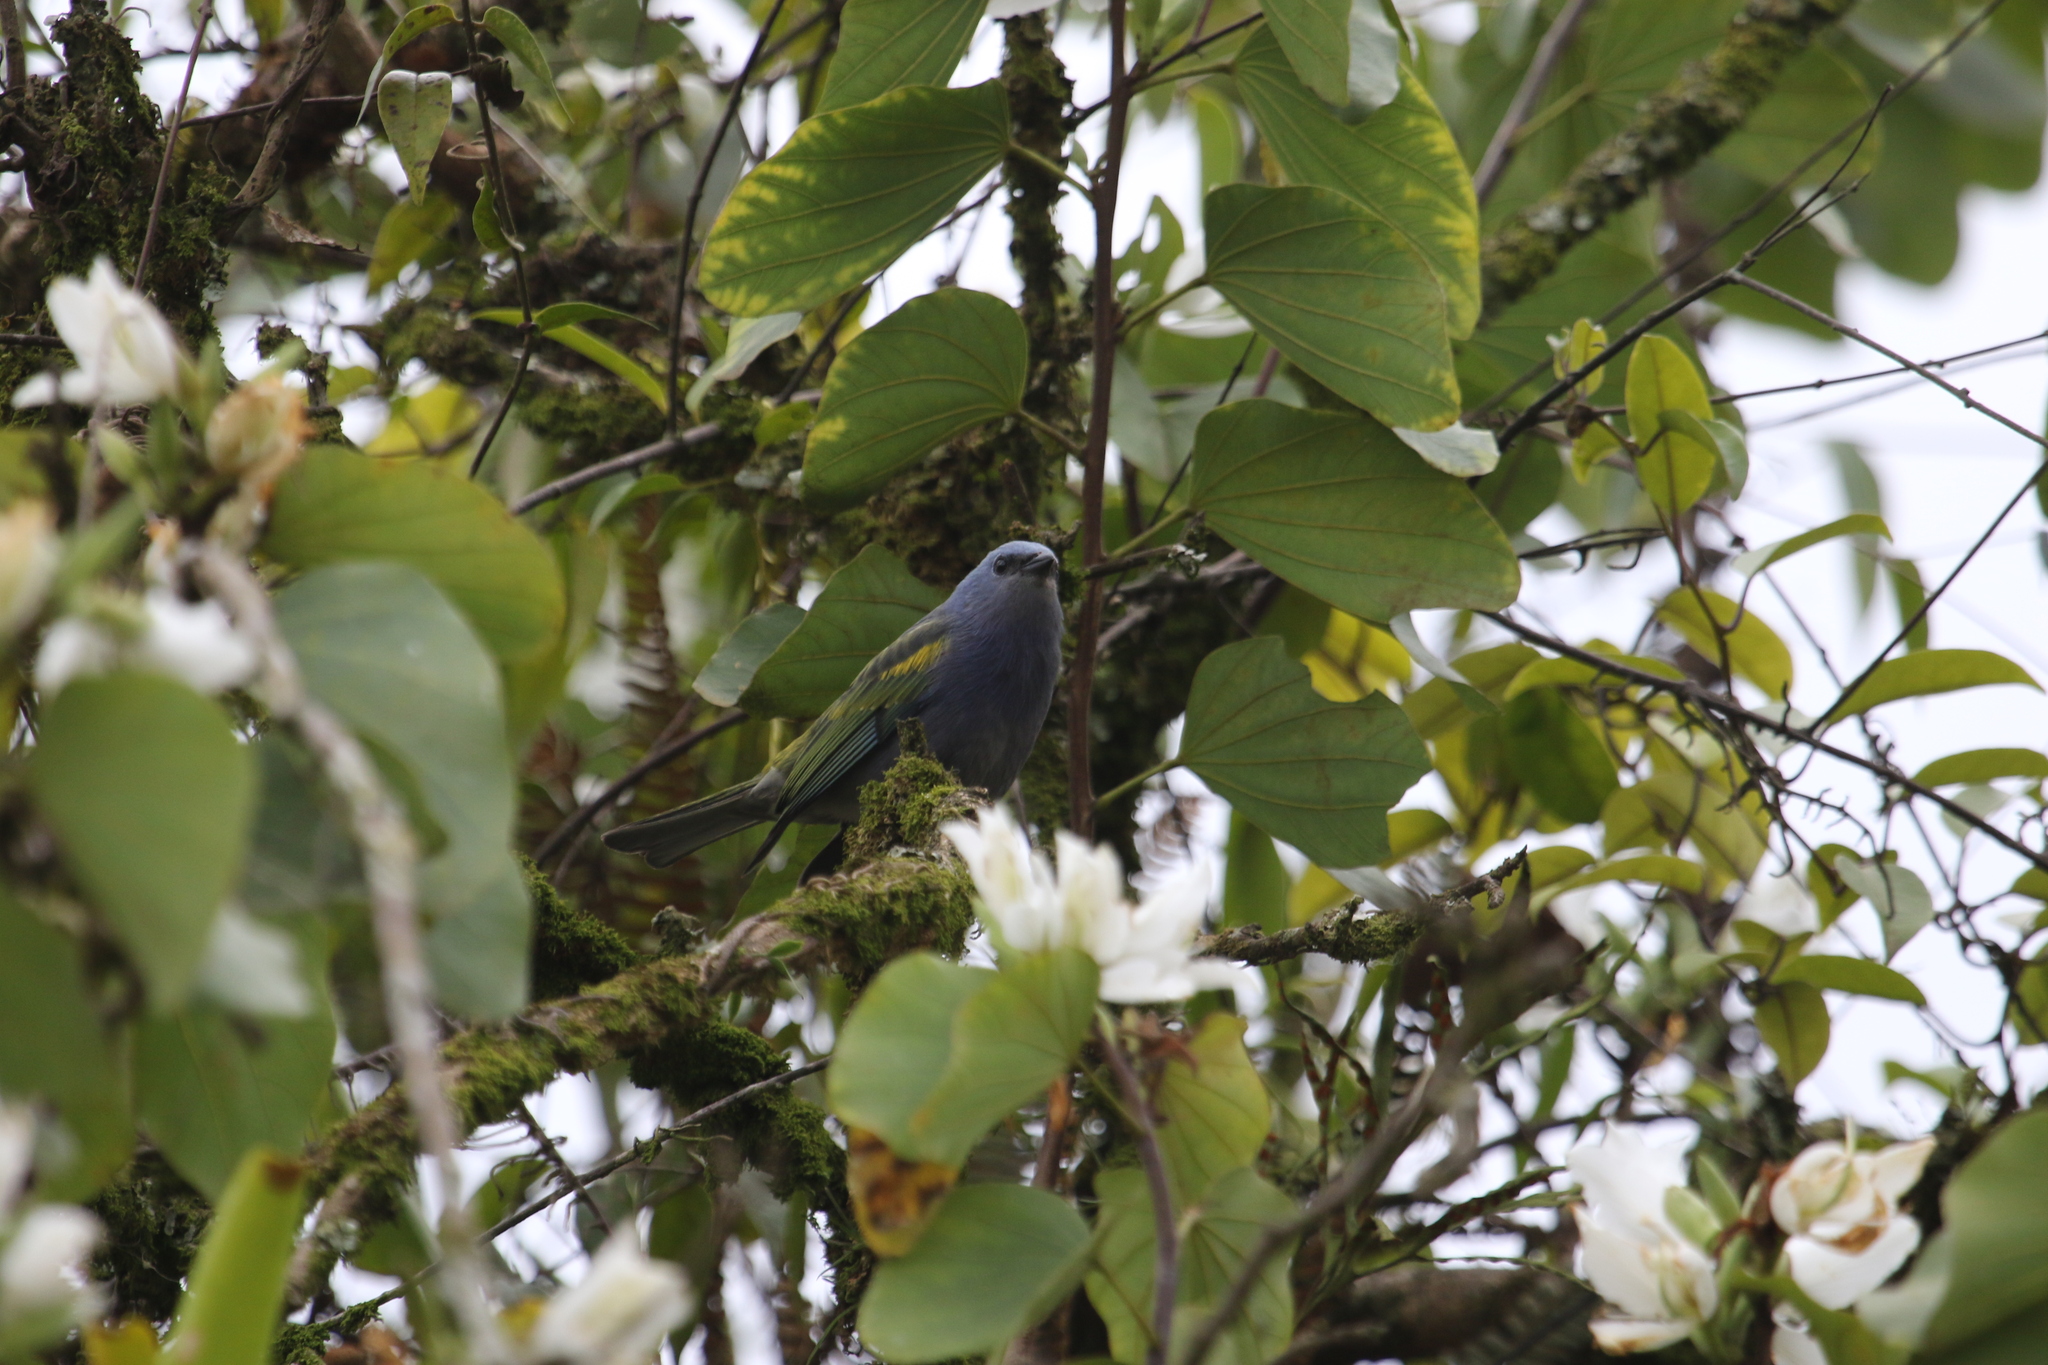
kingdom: Animalia
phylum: Chordata
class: Aves
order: Passeriformes
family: Thraupidae
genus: Thraupis
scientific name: Thraupis ornata
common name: Golden-chevroned tanager
